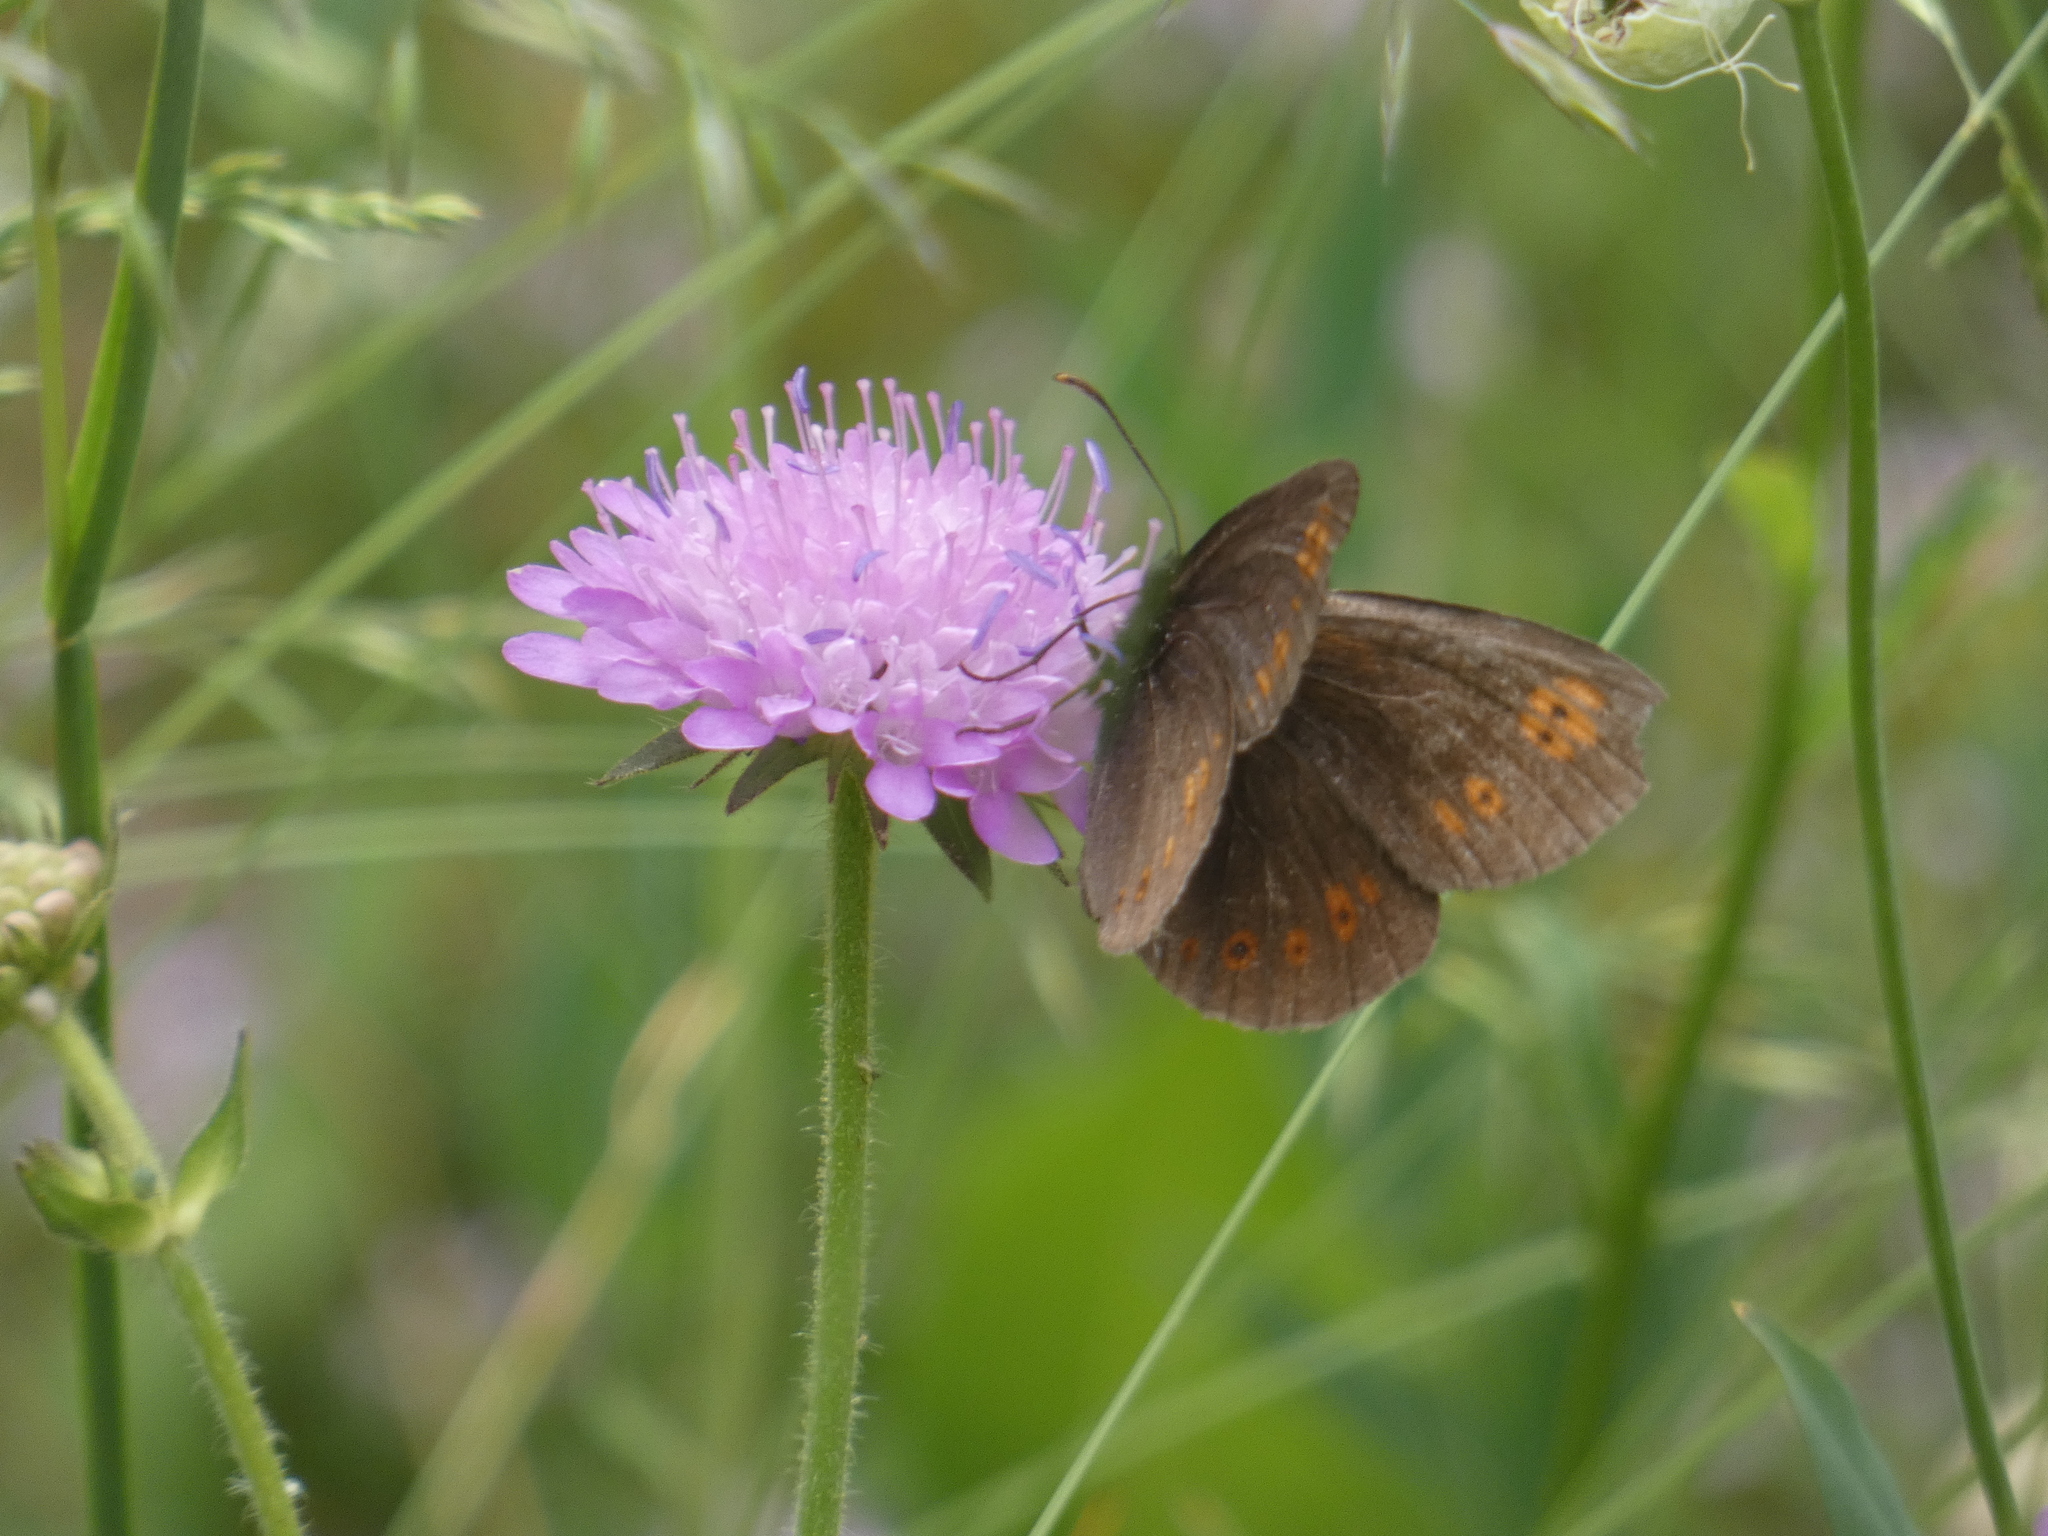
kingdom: Animalia
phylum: Arthropoda
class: Insecta
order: Lepidoptera
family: Nymphalidae
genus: Erebia
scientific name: Erebia alberganus
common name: Almond-eyed ringlet
